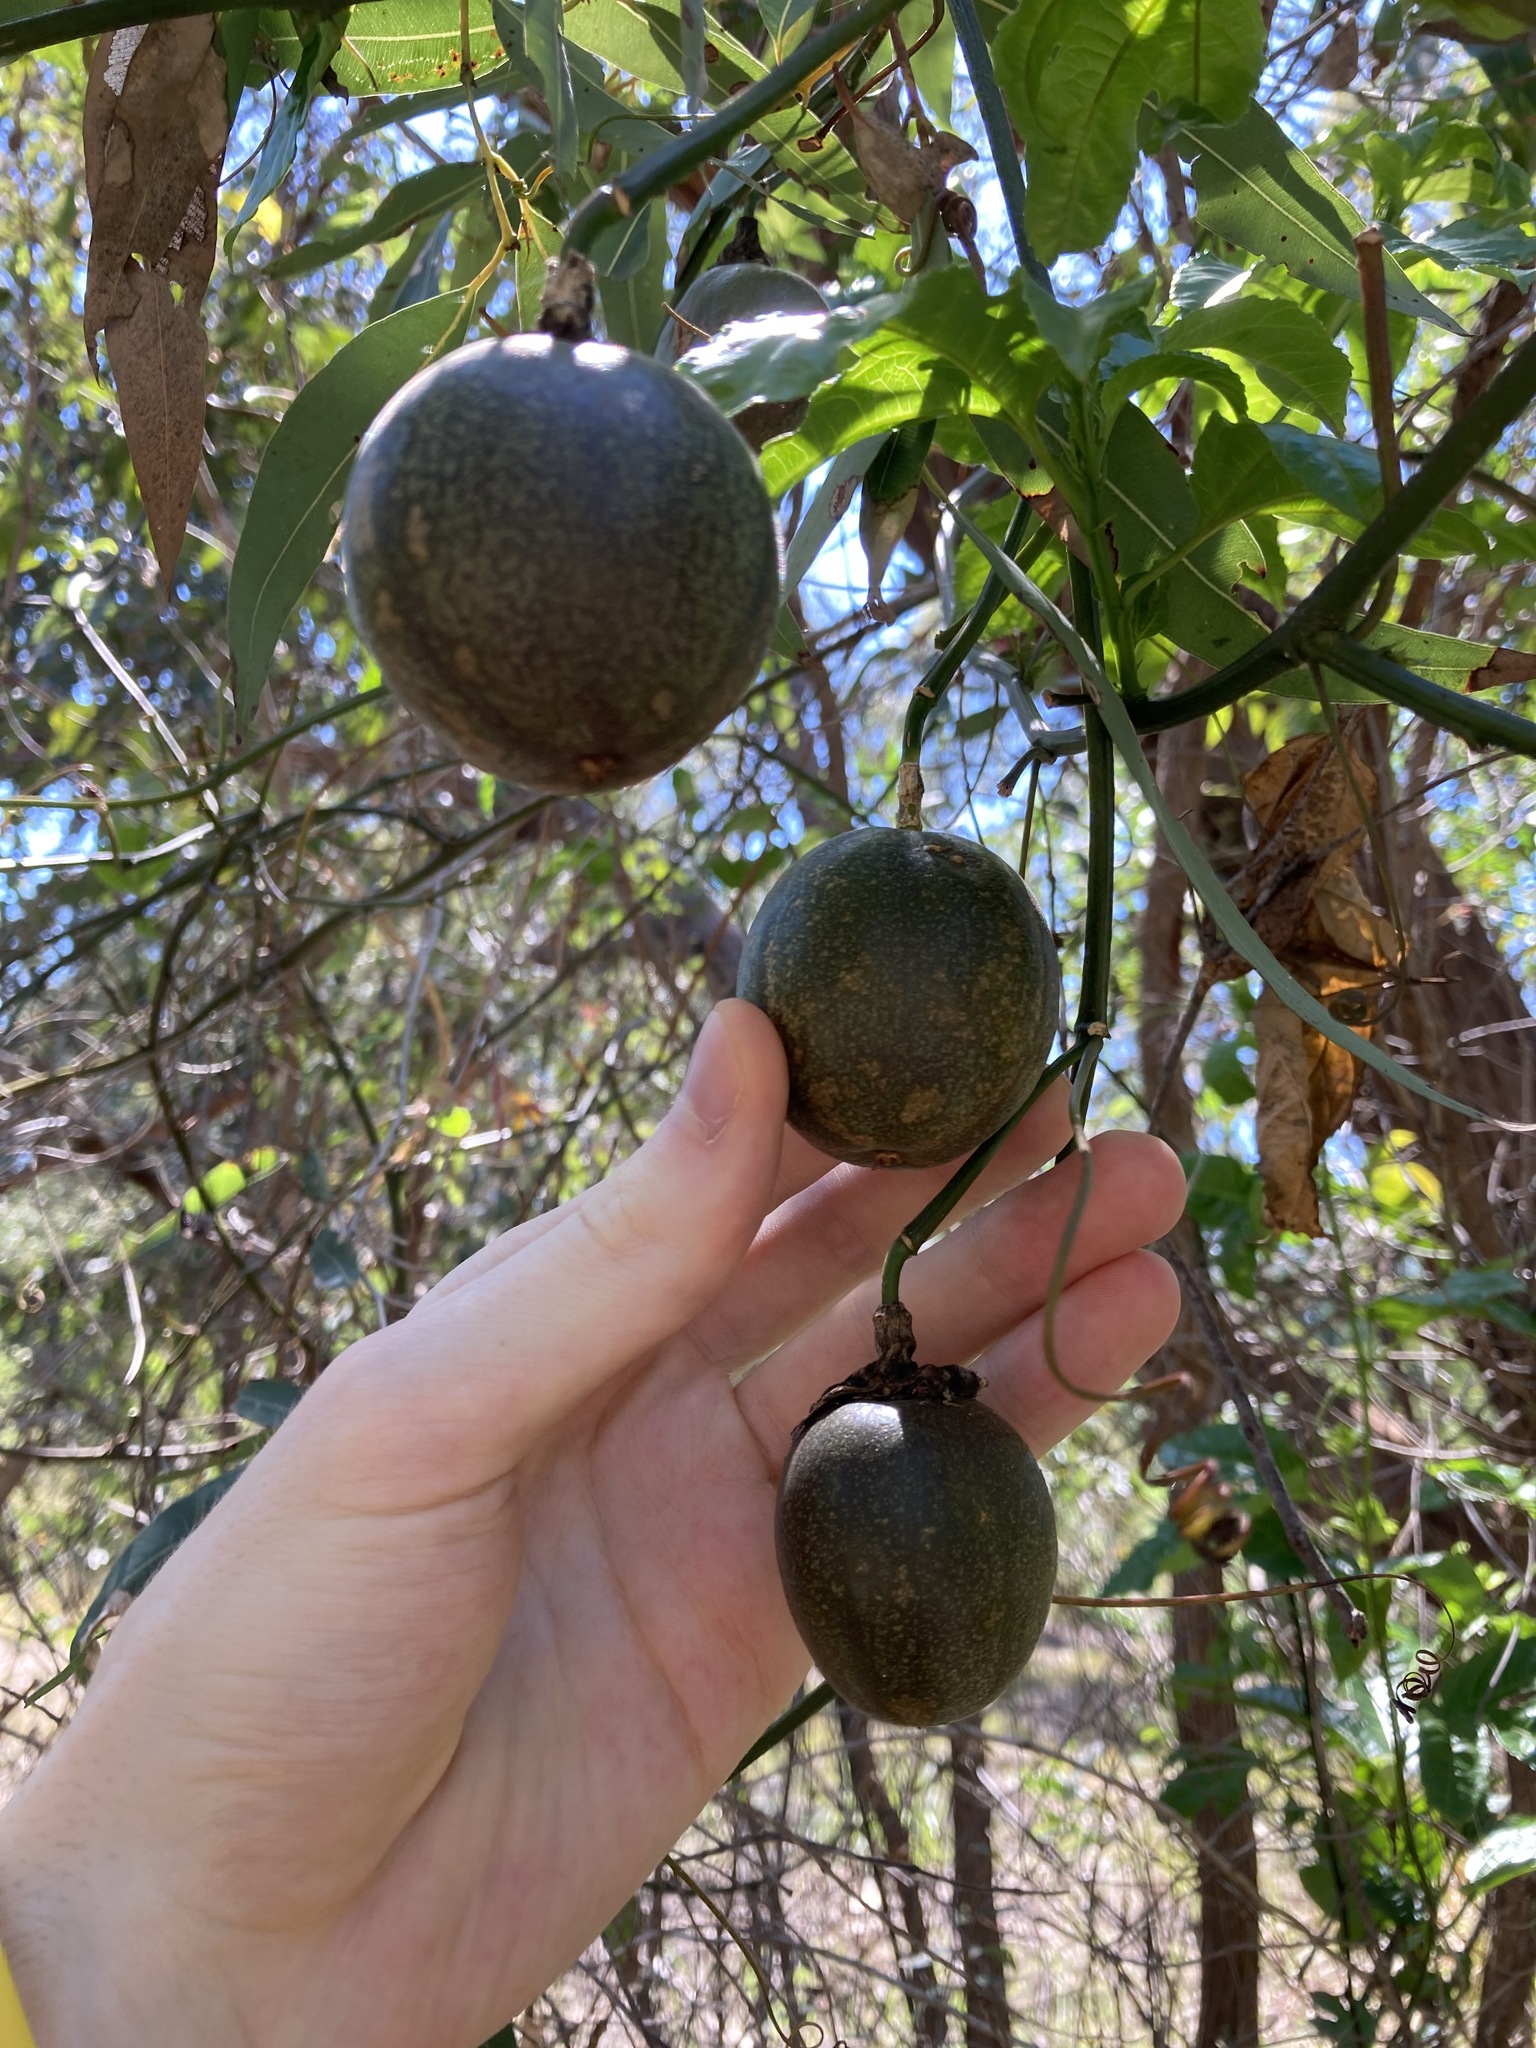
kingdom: Plantae
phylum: Tracheophyta
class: Magnoliopsida
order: Malpighiales
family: Passifloraceae
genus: Passiflora
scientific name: Passiflora edulis
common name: Purple granadilla
